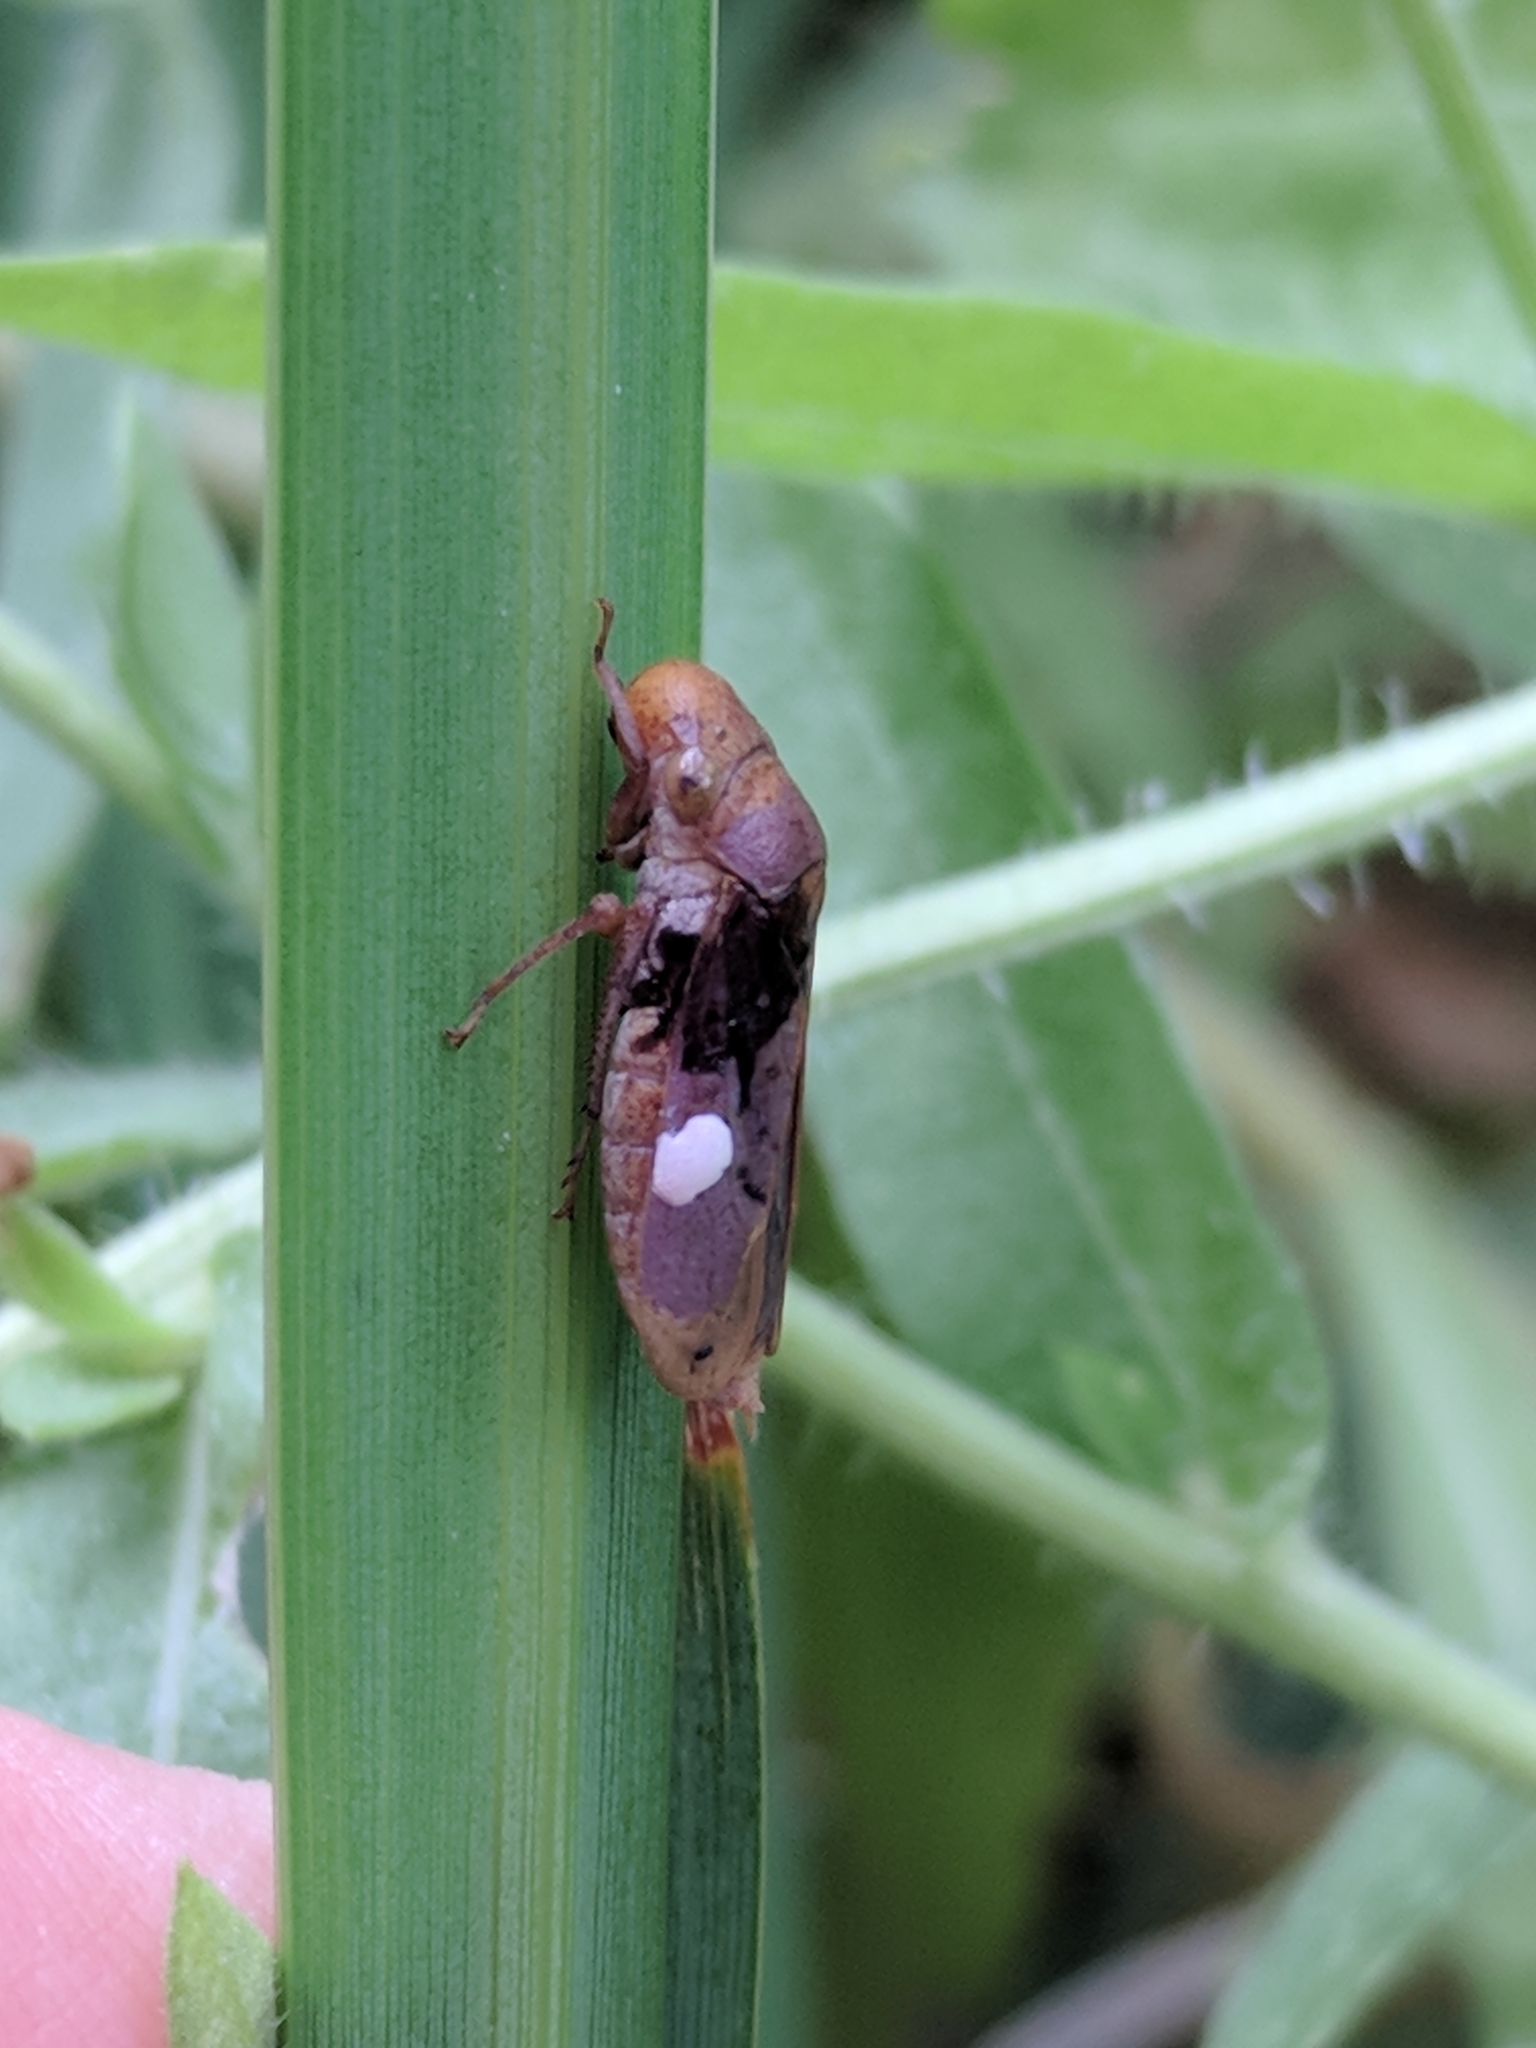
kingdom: Animalia
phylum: Arthropoda
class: Insecta
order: Hemiptera
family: Cicadellidae
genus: Oncometopia
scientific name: Oncometopia hamiltoni
